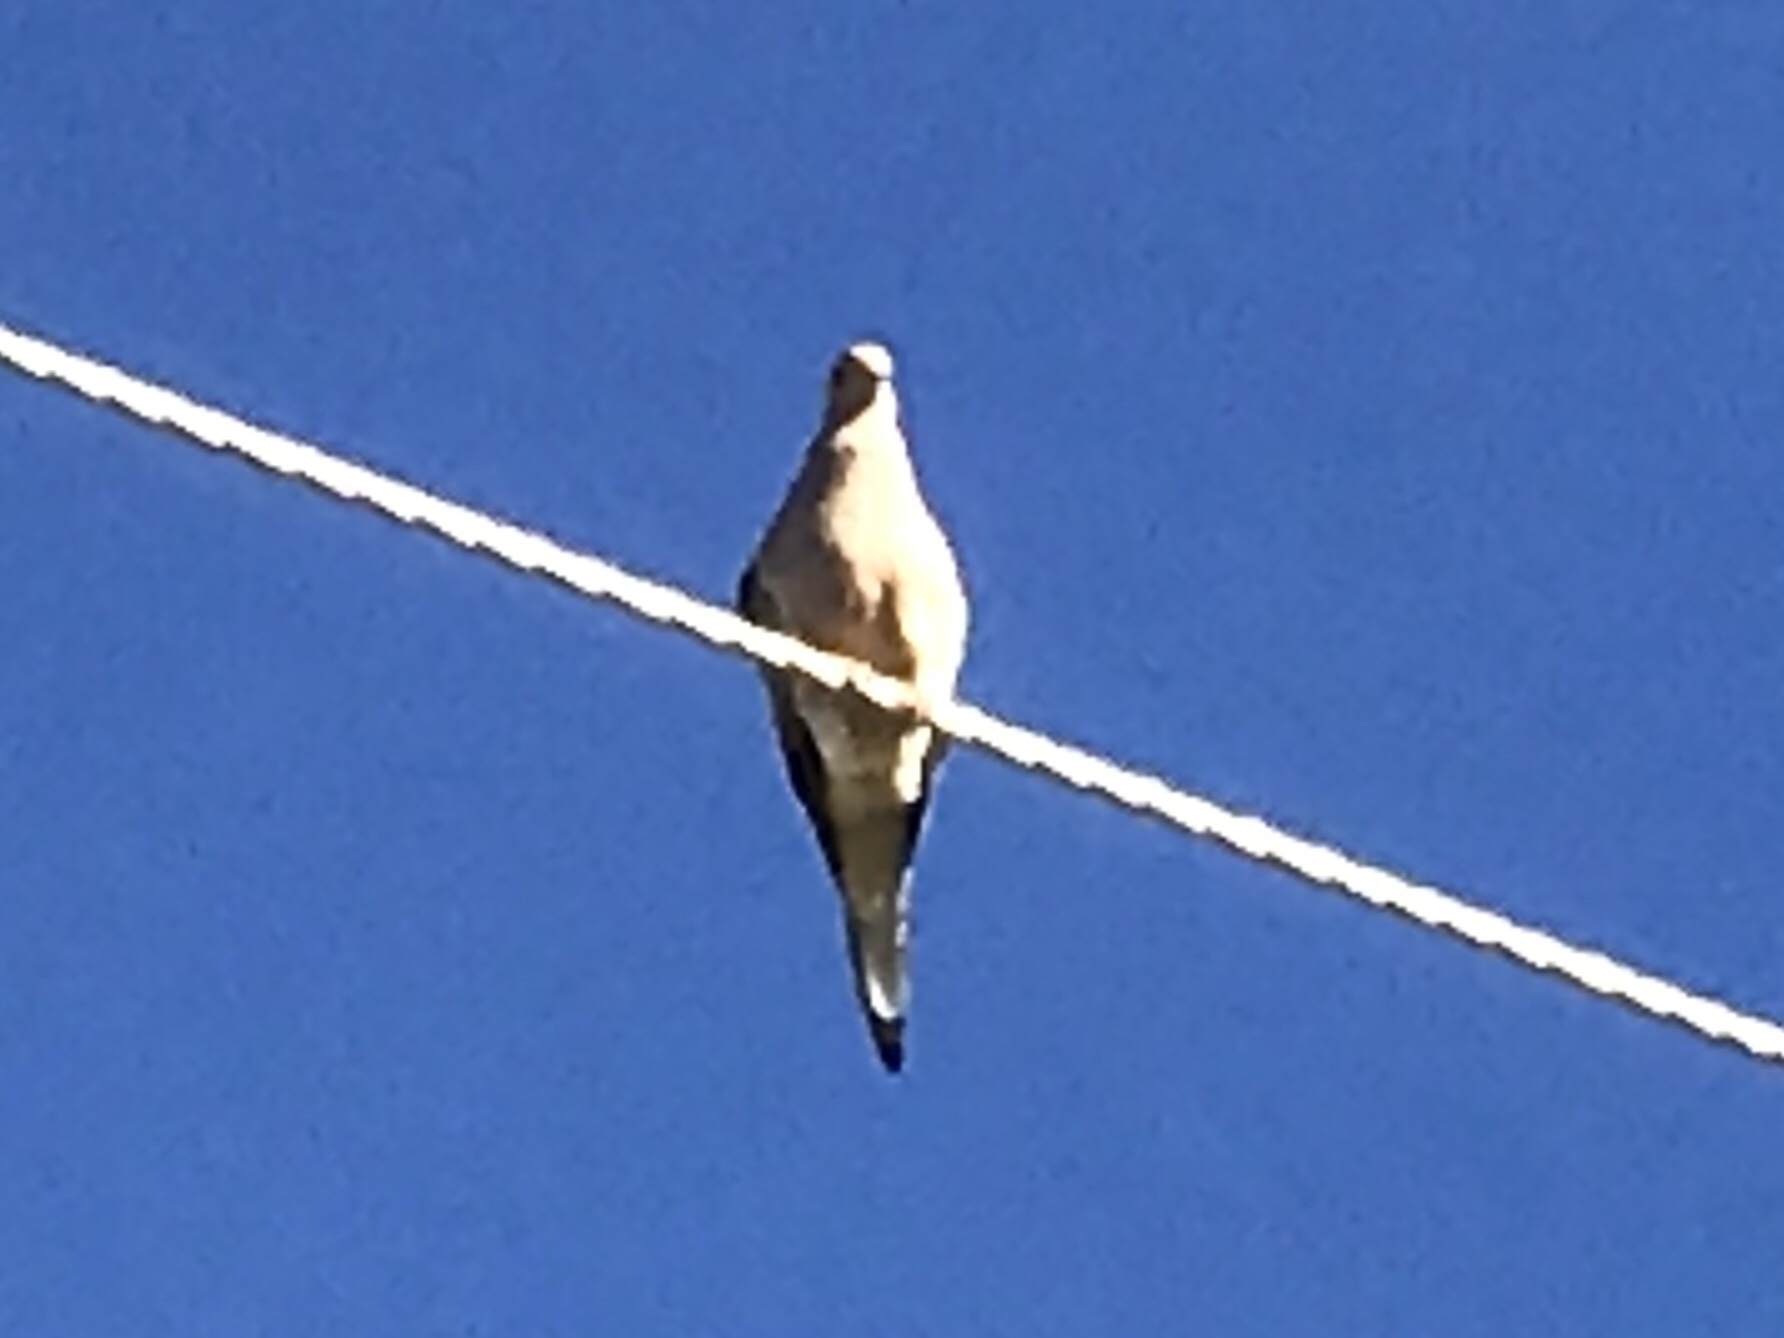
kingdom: Animalia
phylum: Chordata
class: Aves
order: Columbiformes
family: Columbidae
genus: Zenaida
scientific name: Zenaida macroura
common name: Mourning dove
